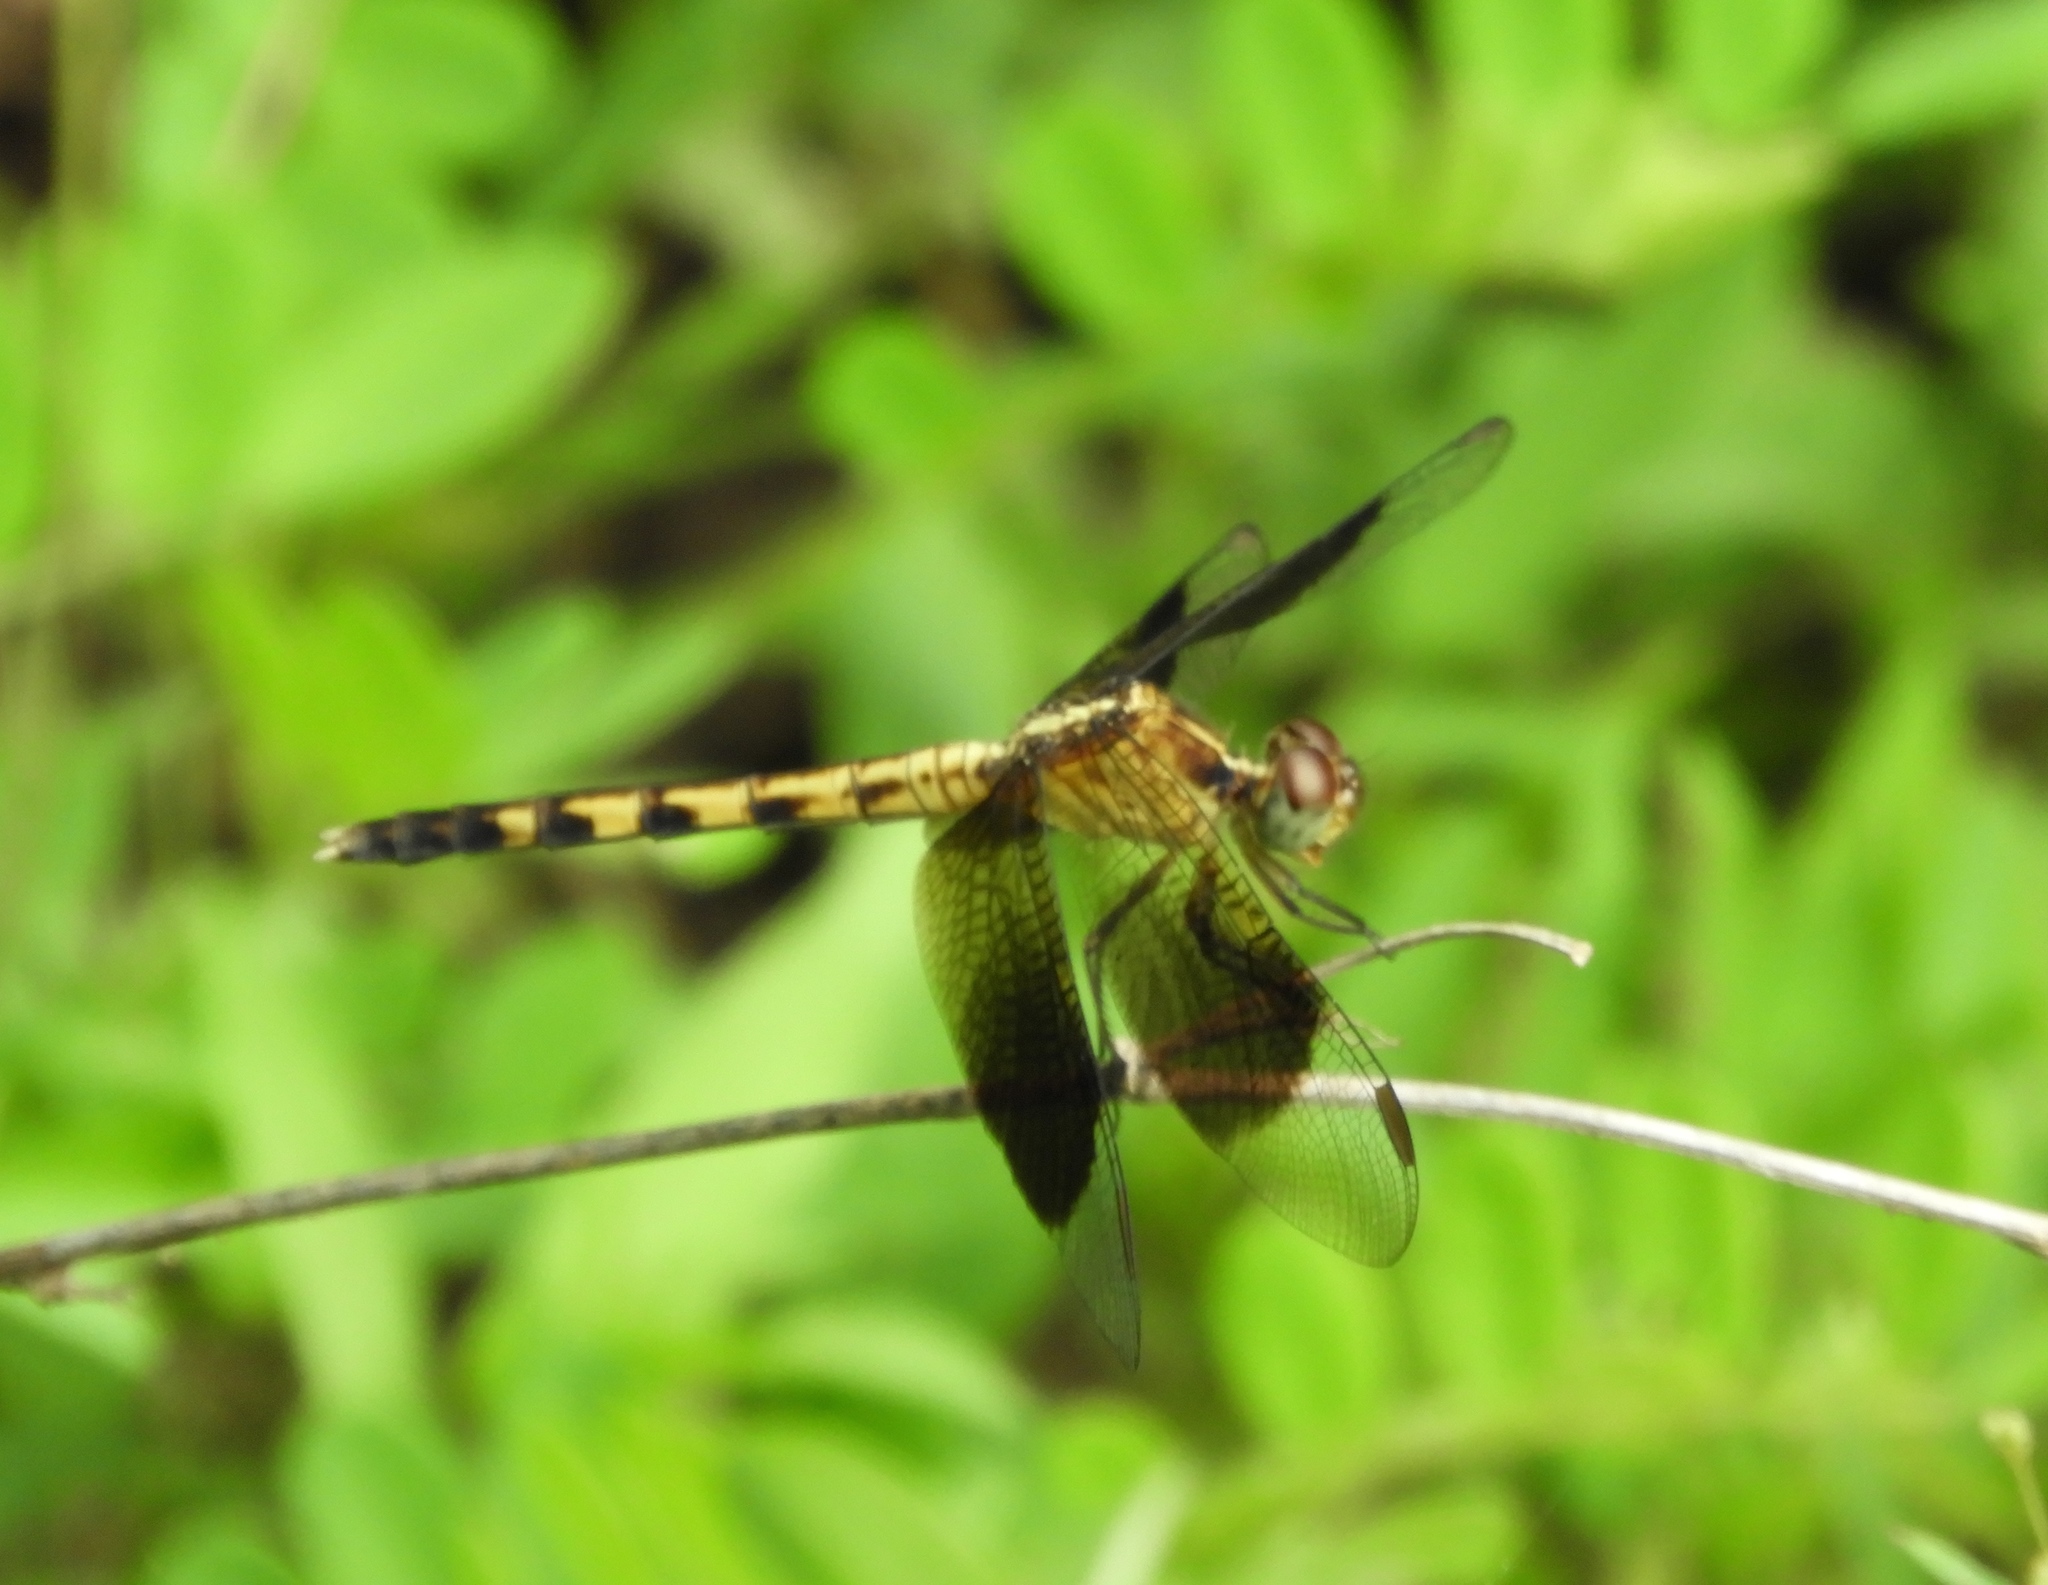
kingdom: Animalia
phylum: Arthropoda
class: Insecta
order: Odonata
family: Libellulidae
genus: Erythrodiplax
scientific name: Erythrodiplax funerea
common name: Black-winged dragonlet
